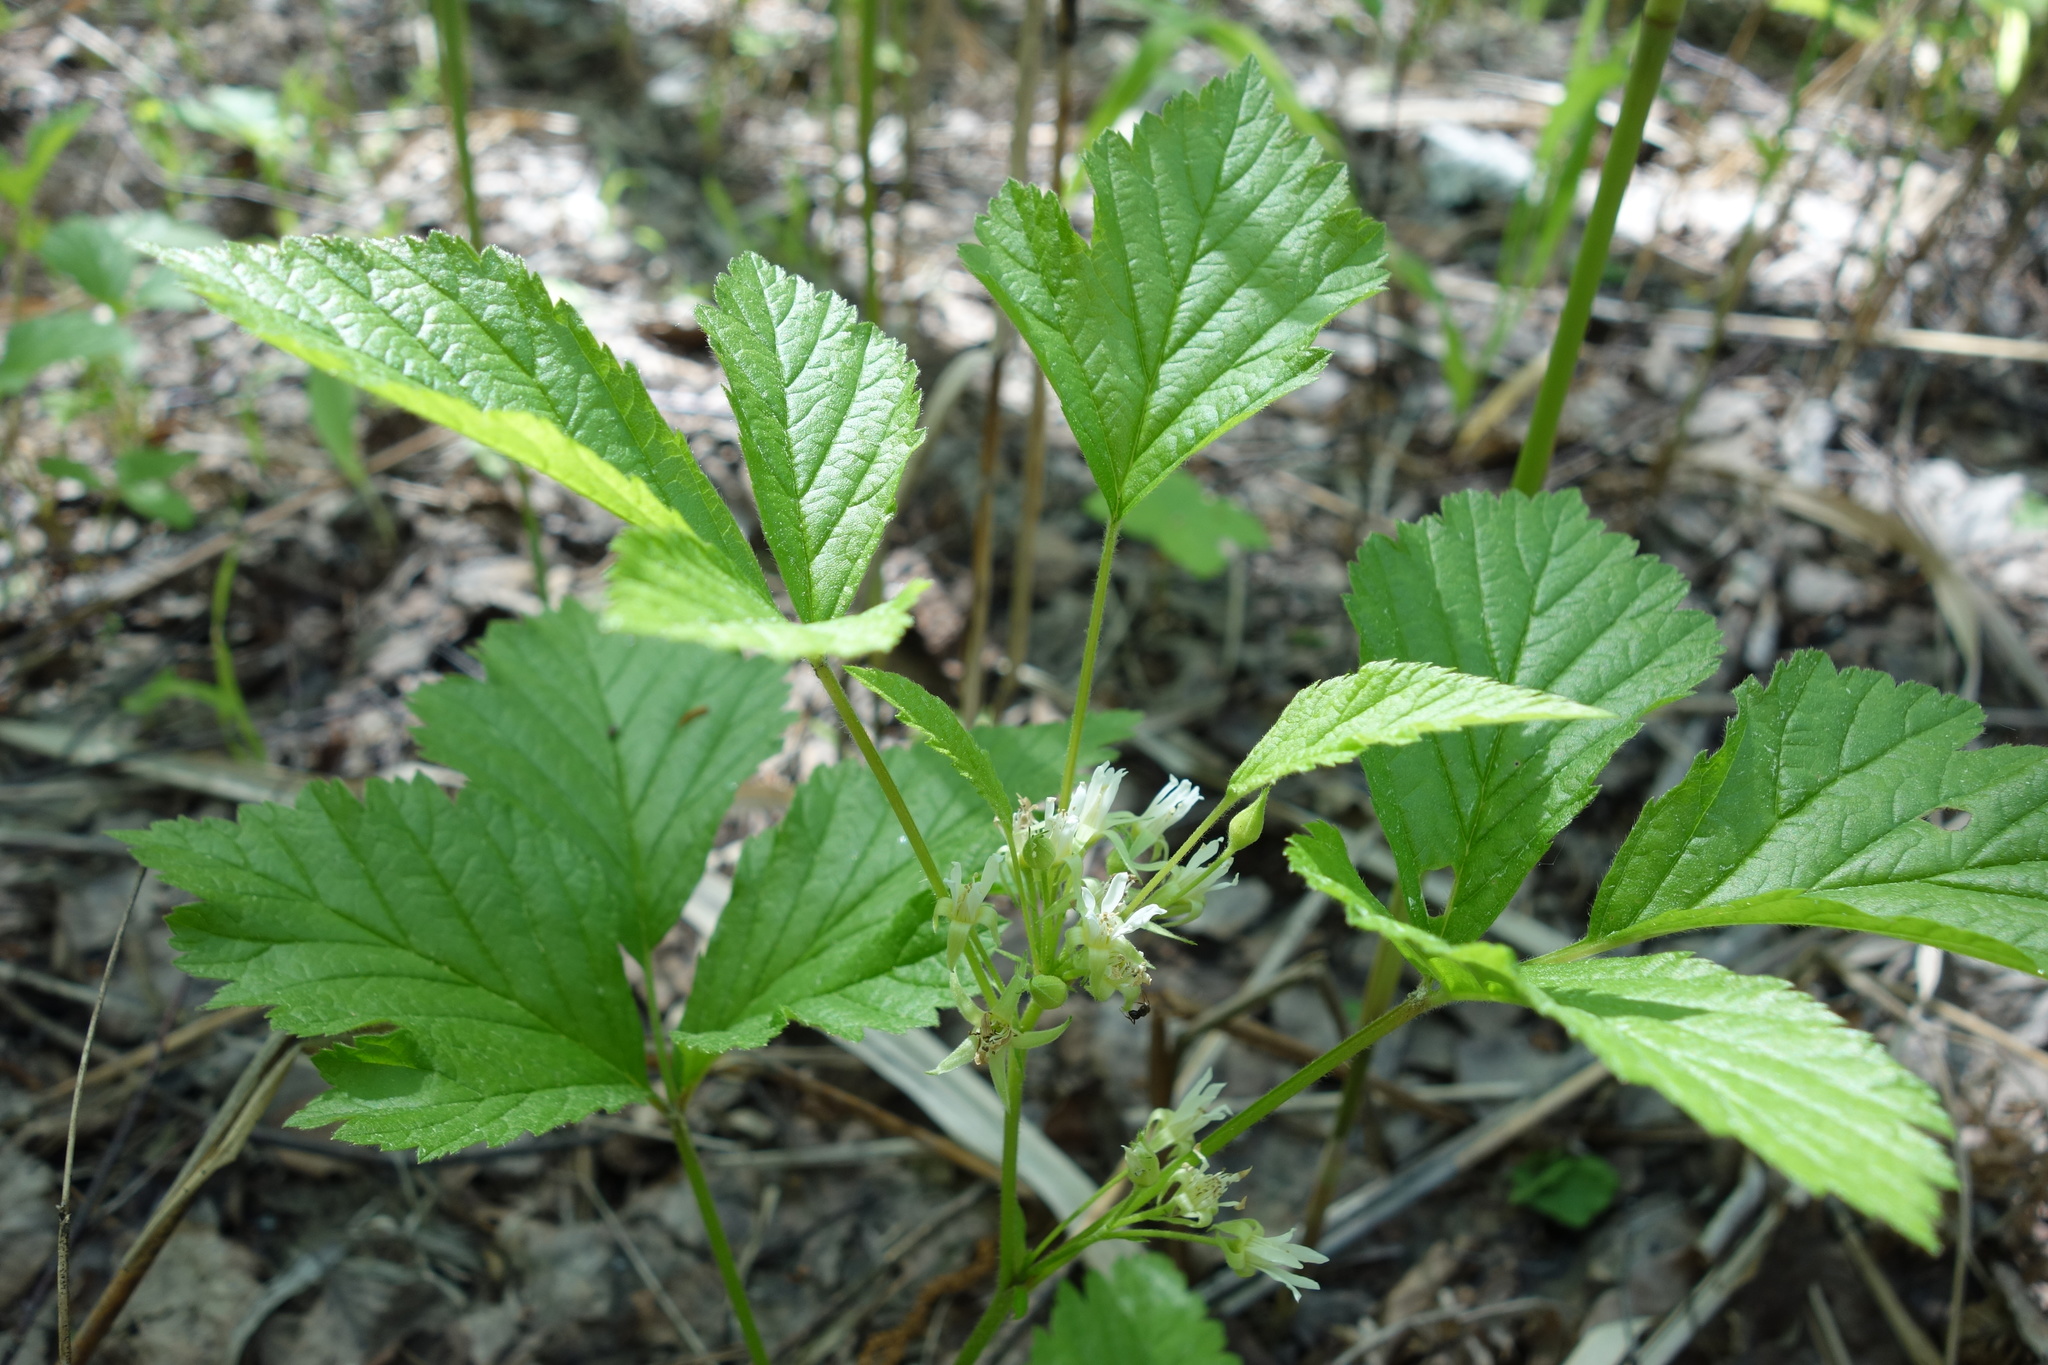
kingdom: Plantae
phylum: Tracheophyta
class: Magnoliopsida
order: Rosales
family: Rosaceae
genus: Rubus
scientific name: Rubus saxatilis
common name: Stone bramble
